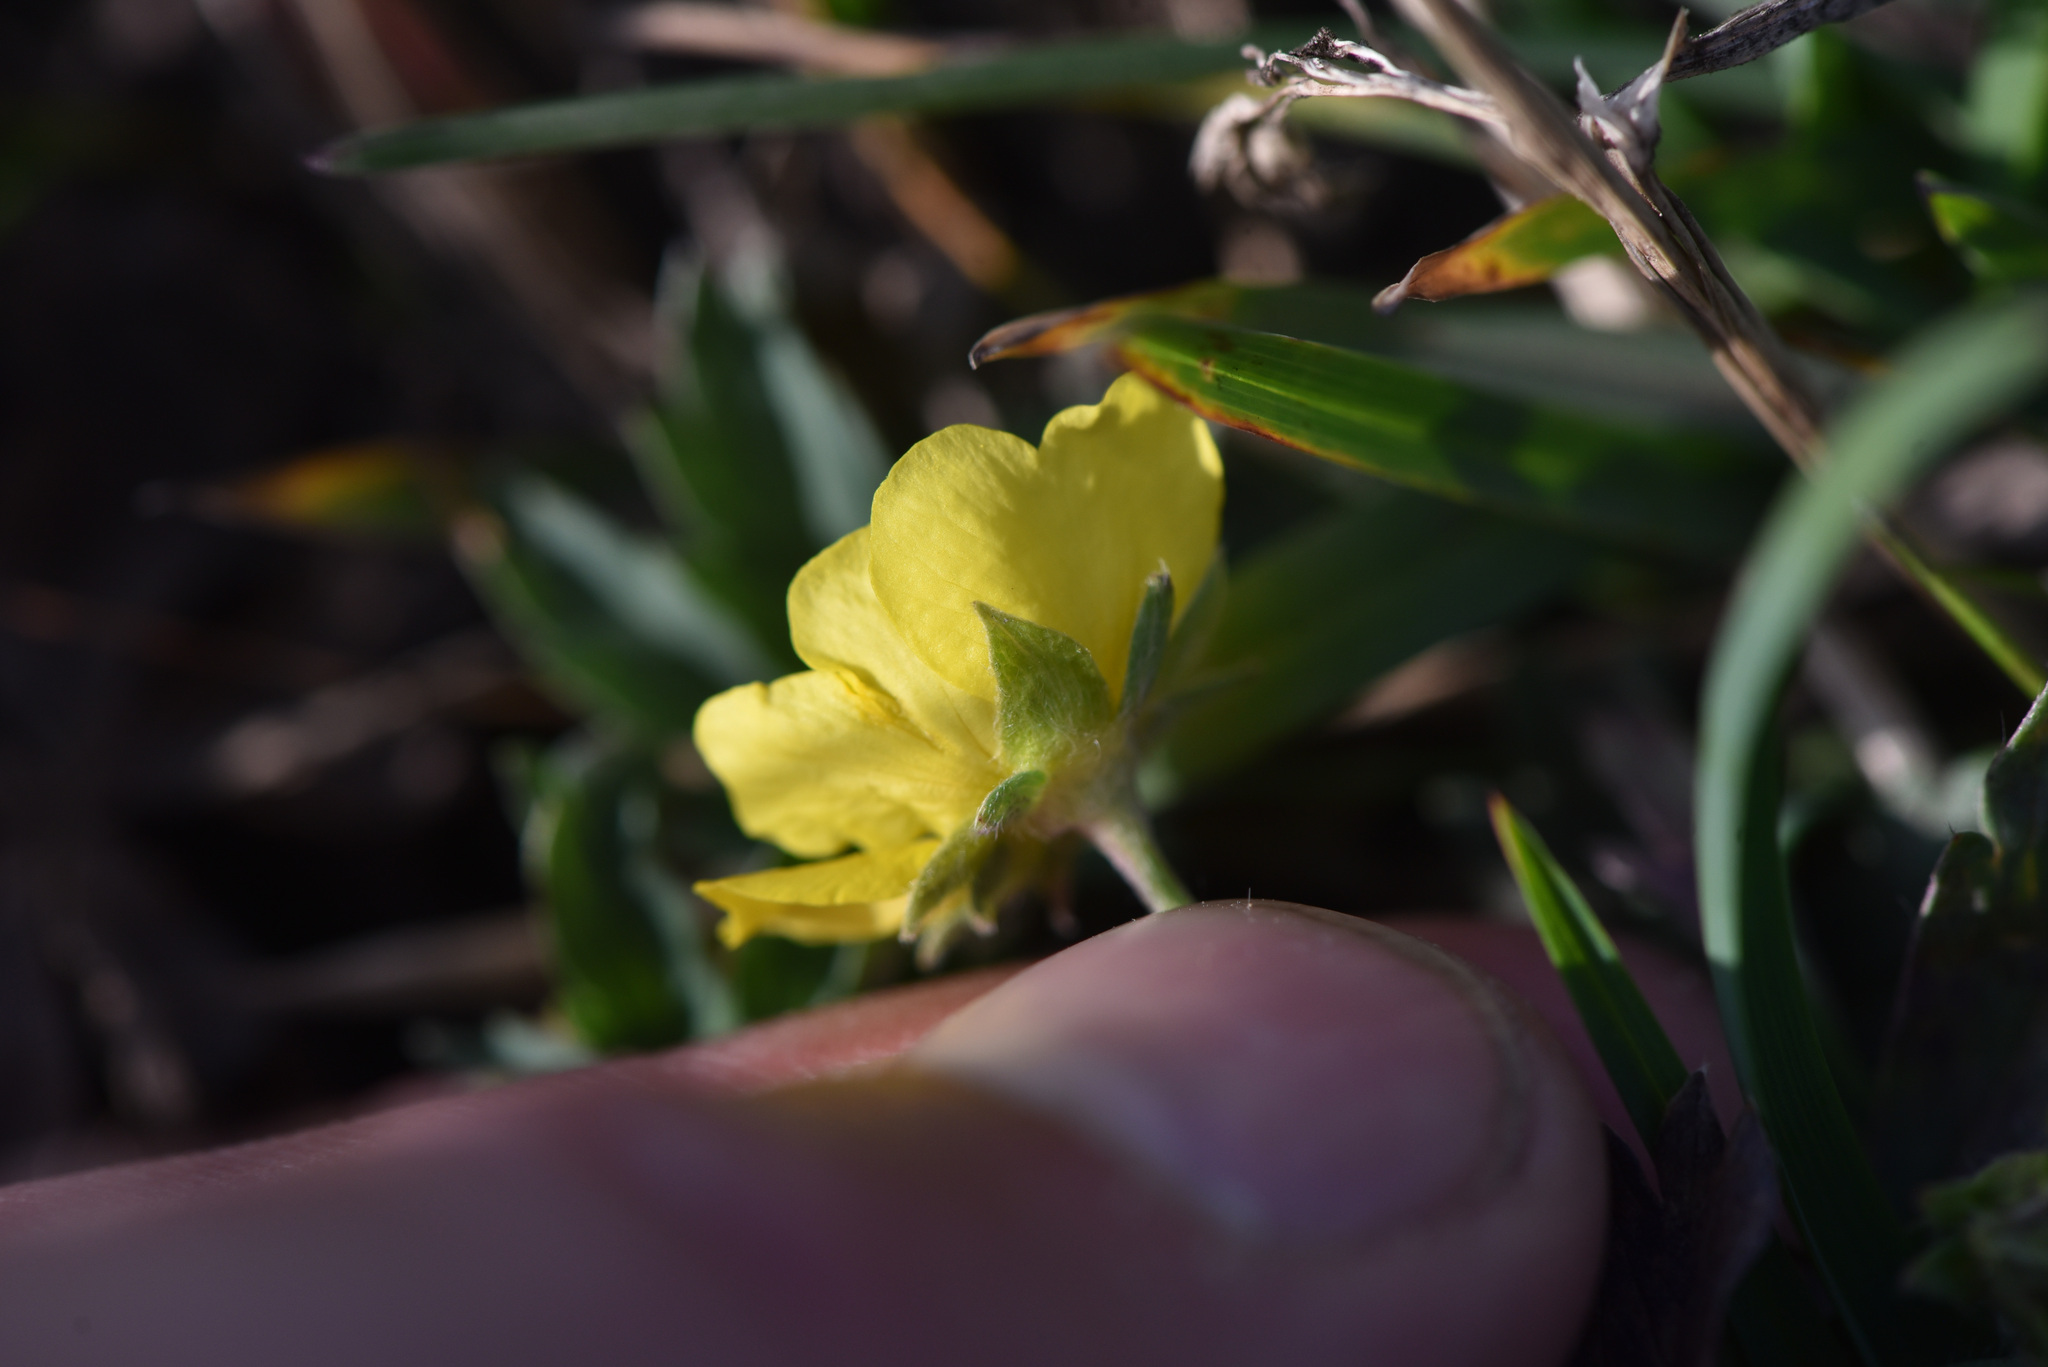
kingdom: Plantae
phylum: Tracheophyta
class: Magnoliopsida
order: Rosales
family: Rosaceae
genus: Potentilla
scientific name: Potentilla glaucophylla
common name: Blue-leaved cinquefoil
